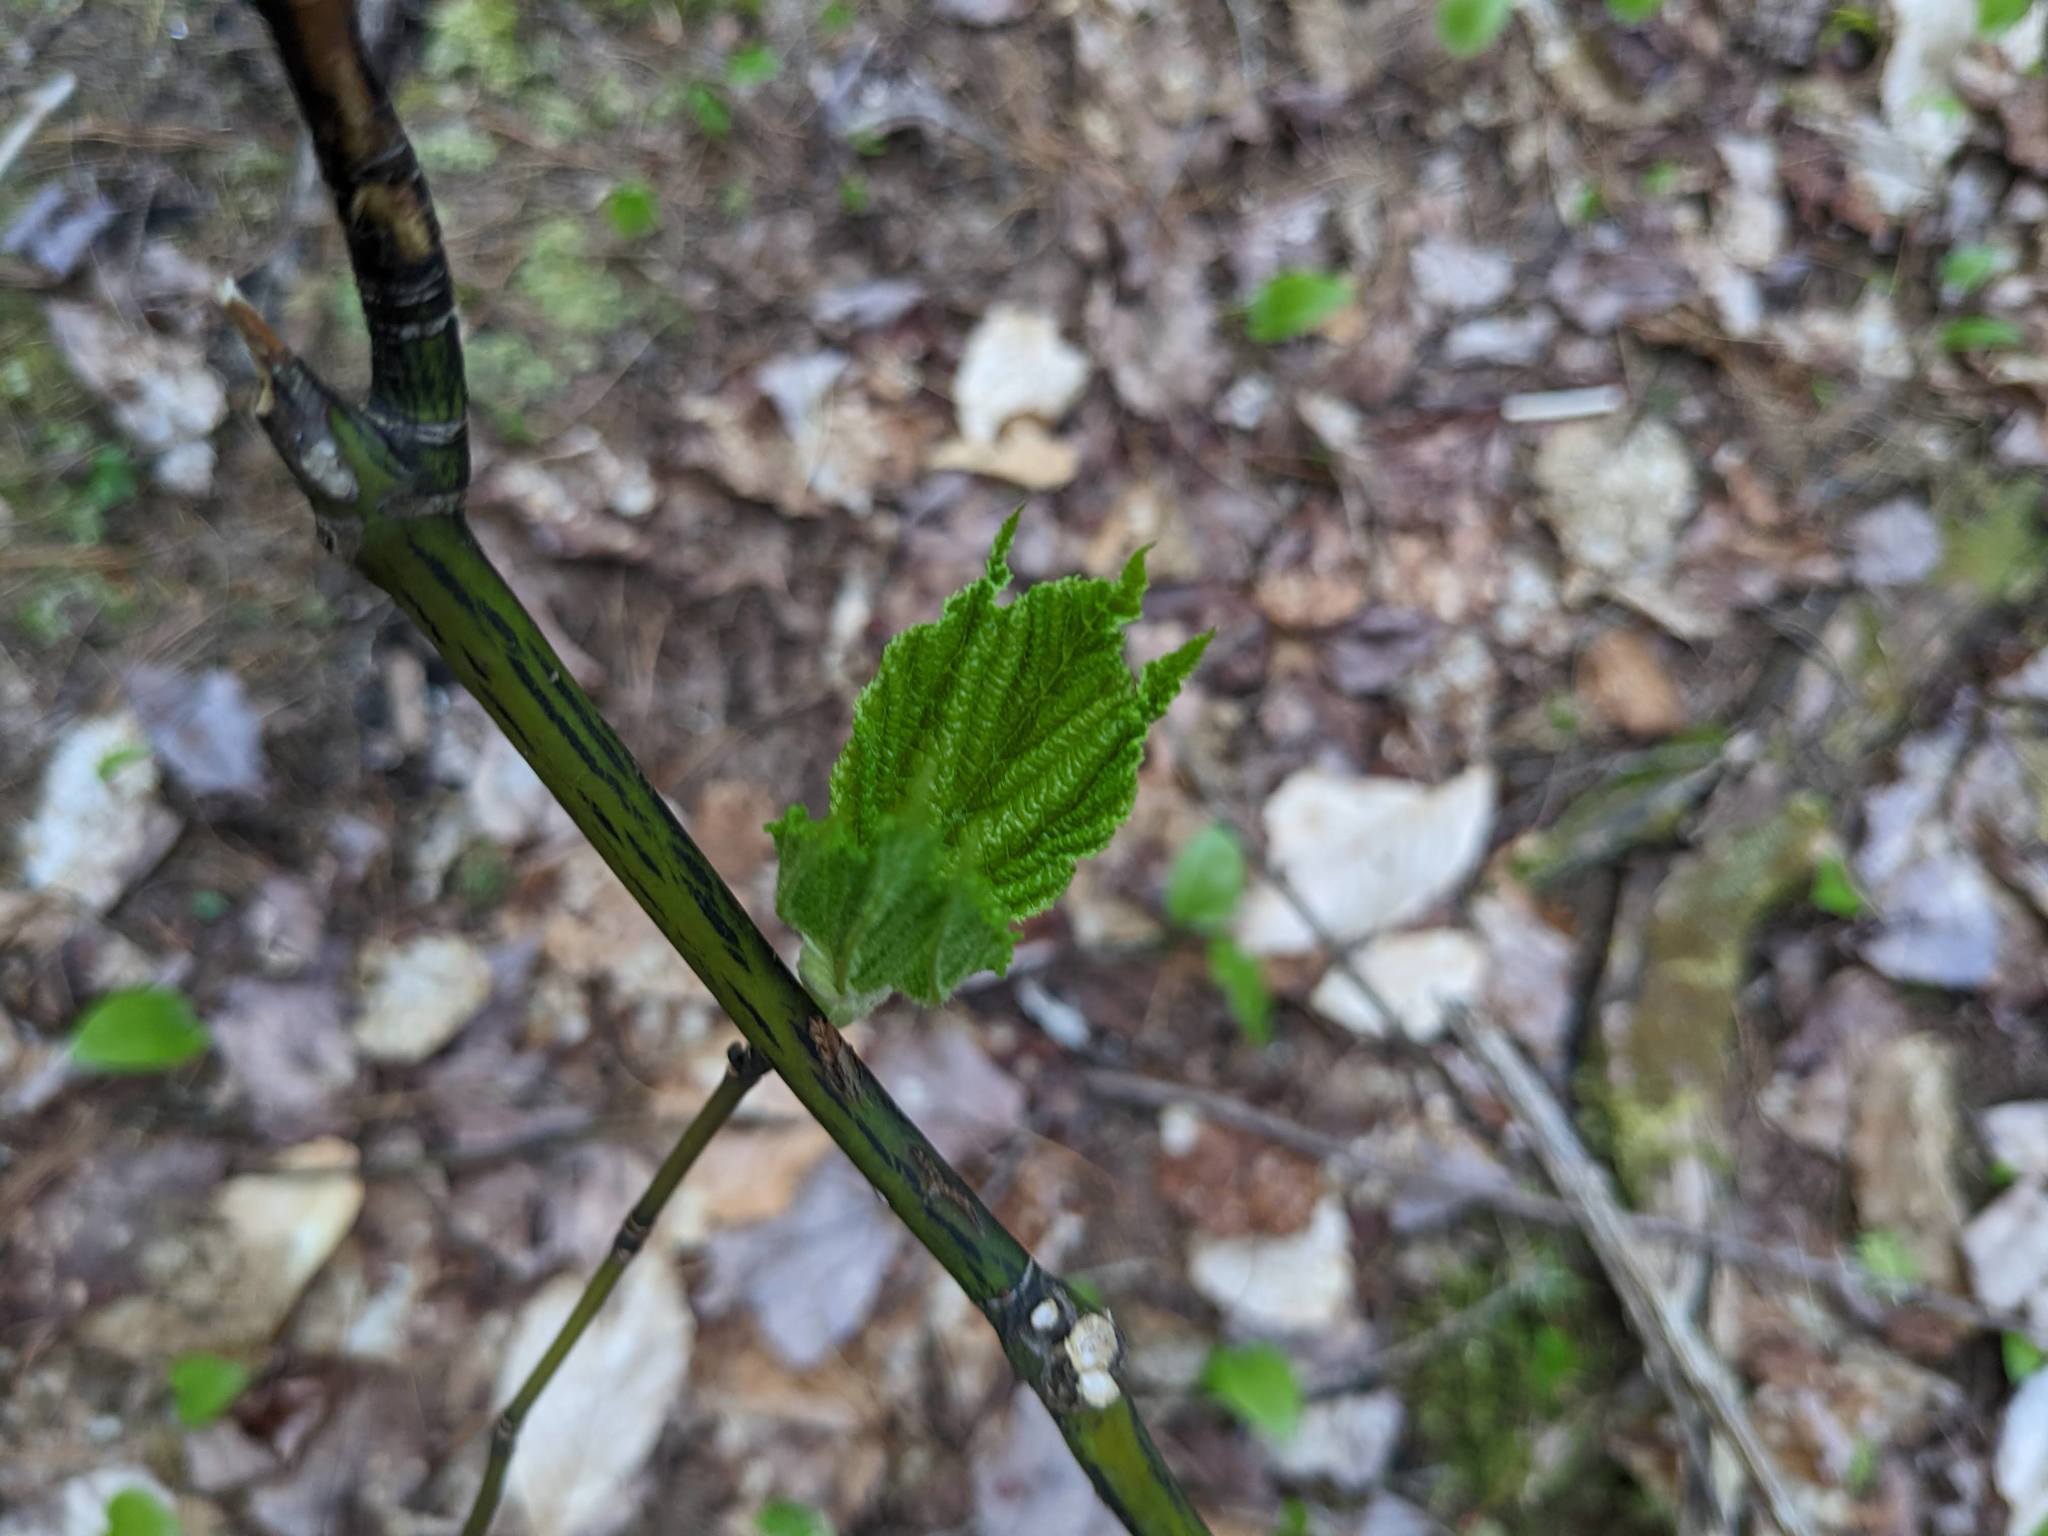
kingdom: Plantae
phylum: Tracheophyta
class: Magnoliopsida
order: Sapindales
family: Sapindaceae
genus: Acer
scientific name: Acer pensylvanicum
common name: Moosewood
